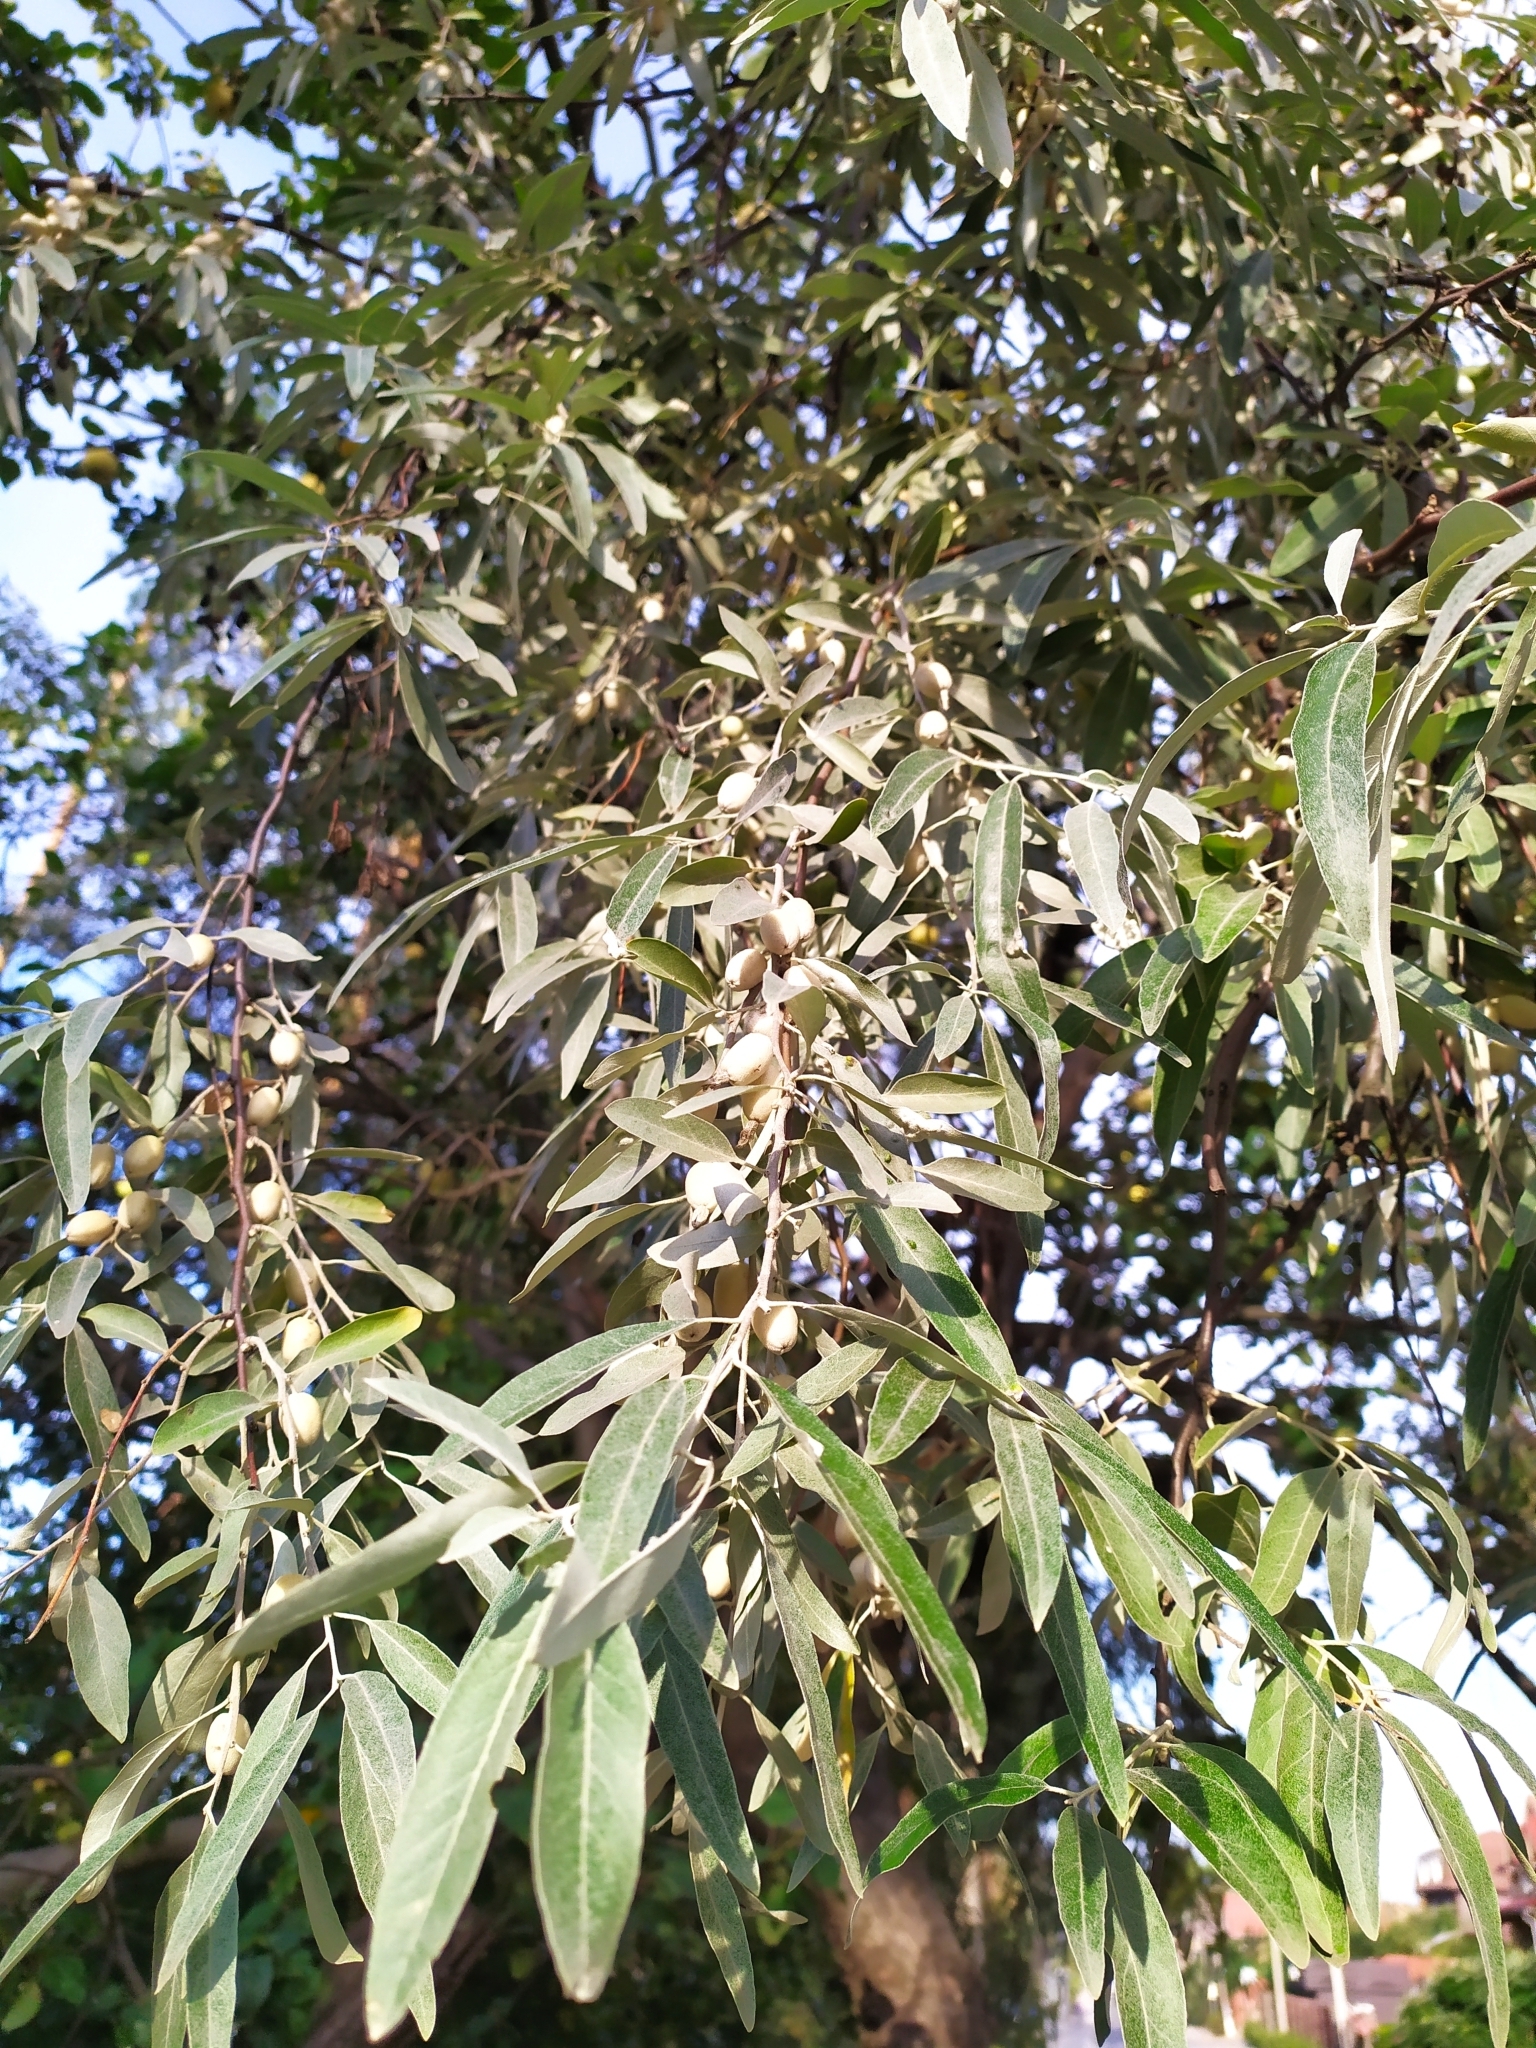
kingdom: Plantae
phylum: Tracheophyta
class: Magnoliopsida
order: Rosales
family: Elaeagnaceae
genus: Elaeagnus
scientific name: Elaeagnus angustifolia
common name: Russian olive
